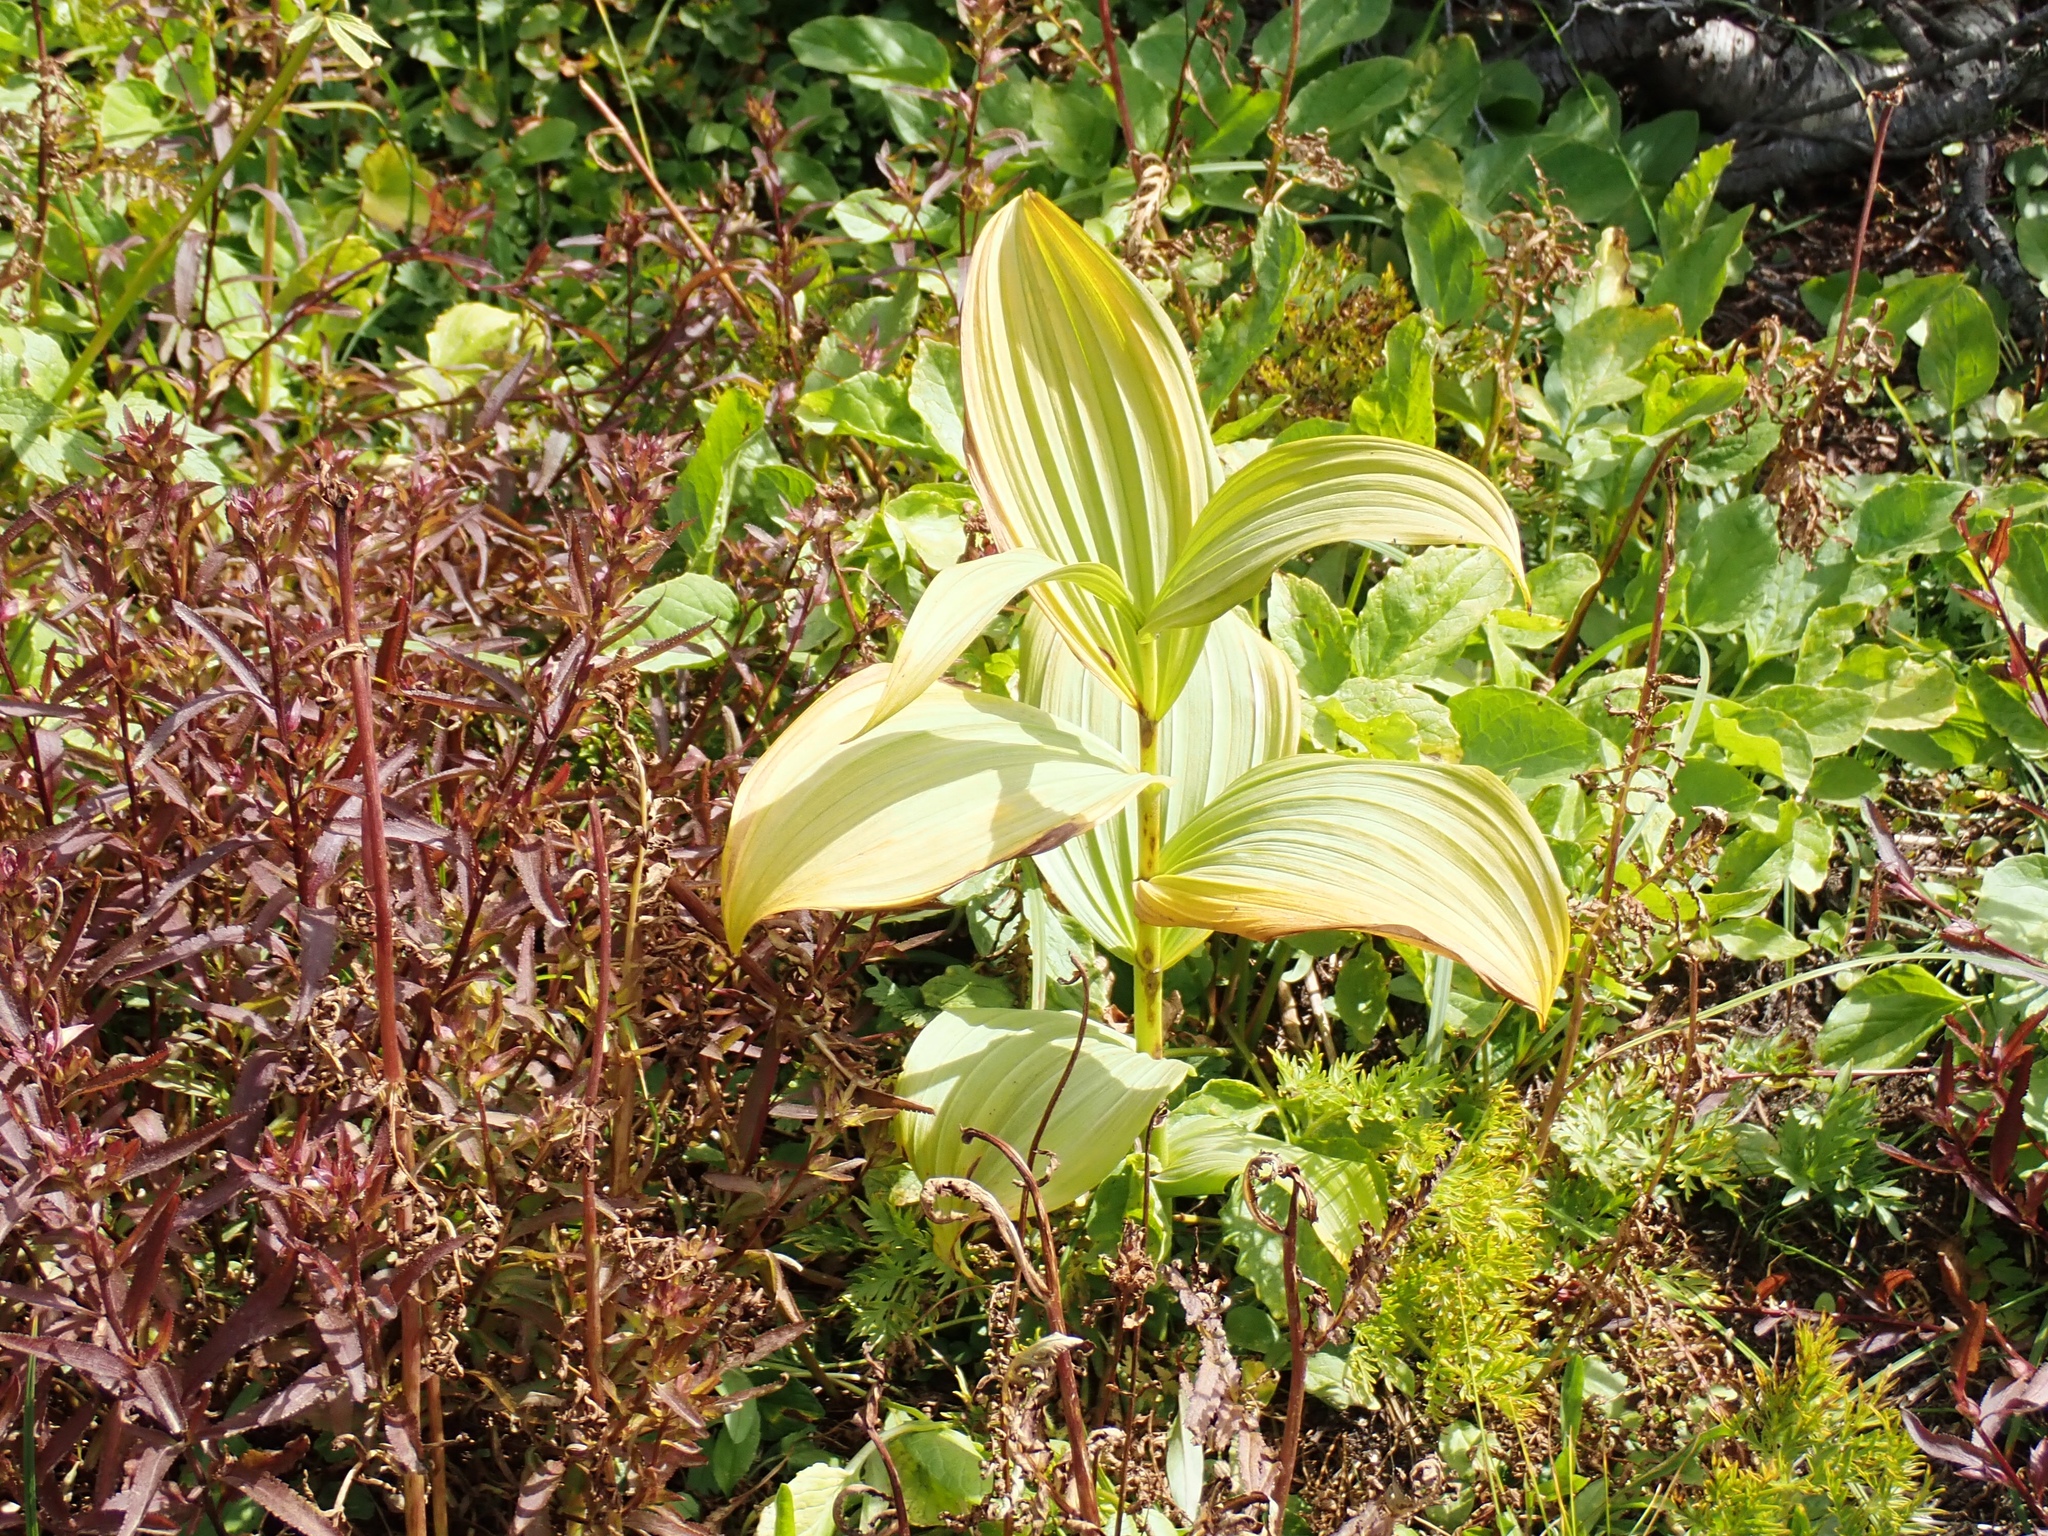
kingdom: Plantae
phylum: Tracheophyta
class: Liliopsida
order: Liliales
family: Melanthiaceae
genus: Veratrum
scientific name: Veratrum viride
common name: American false hellebore
